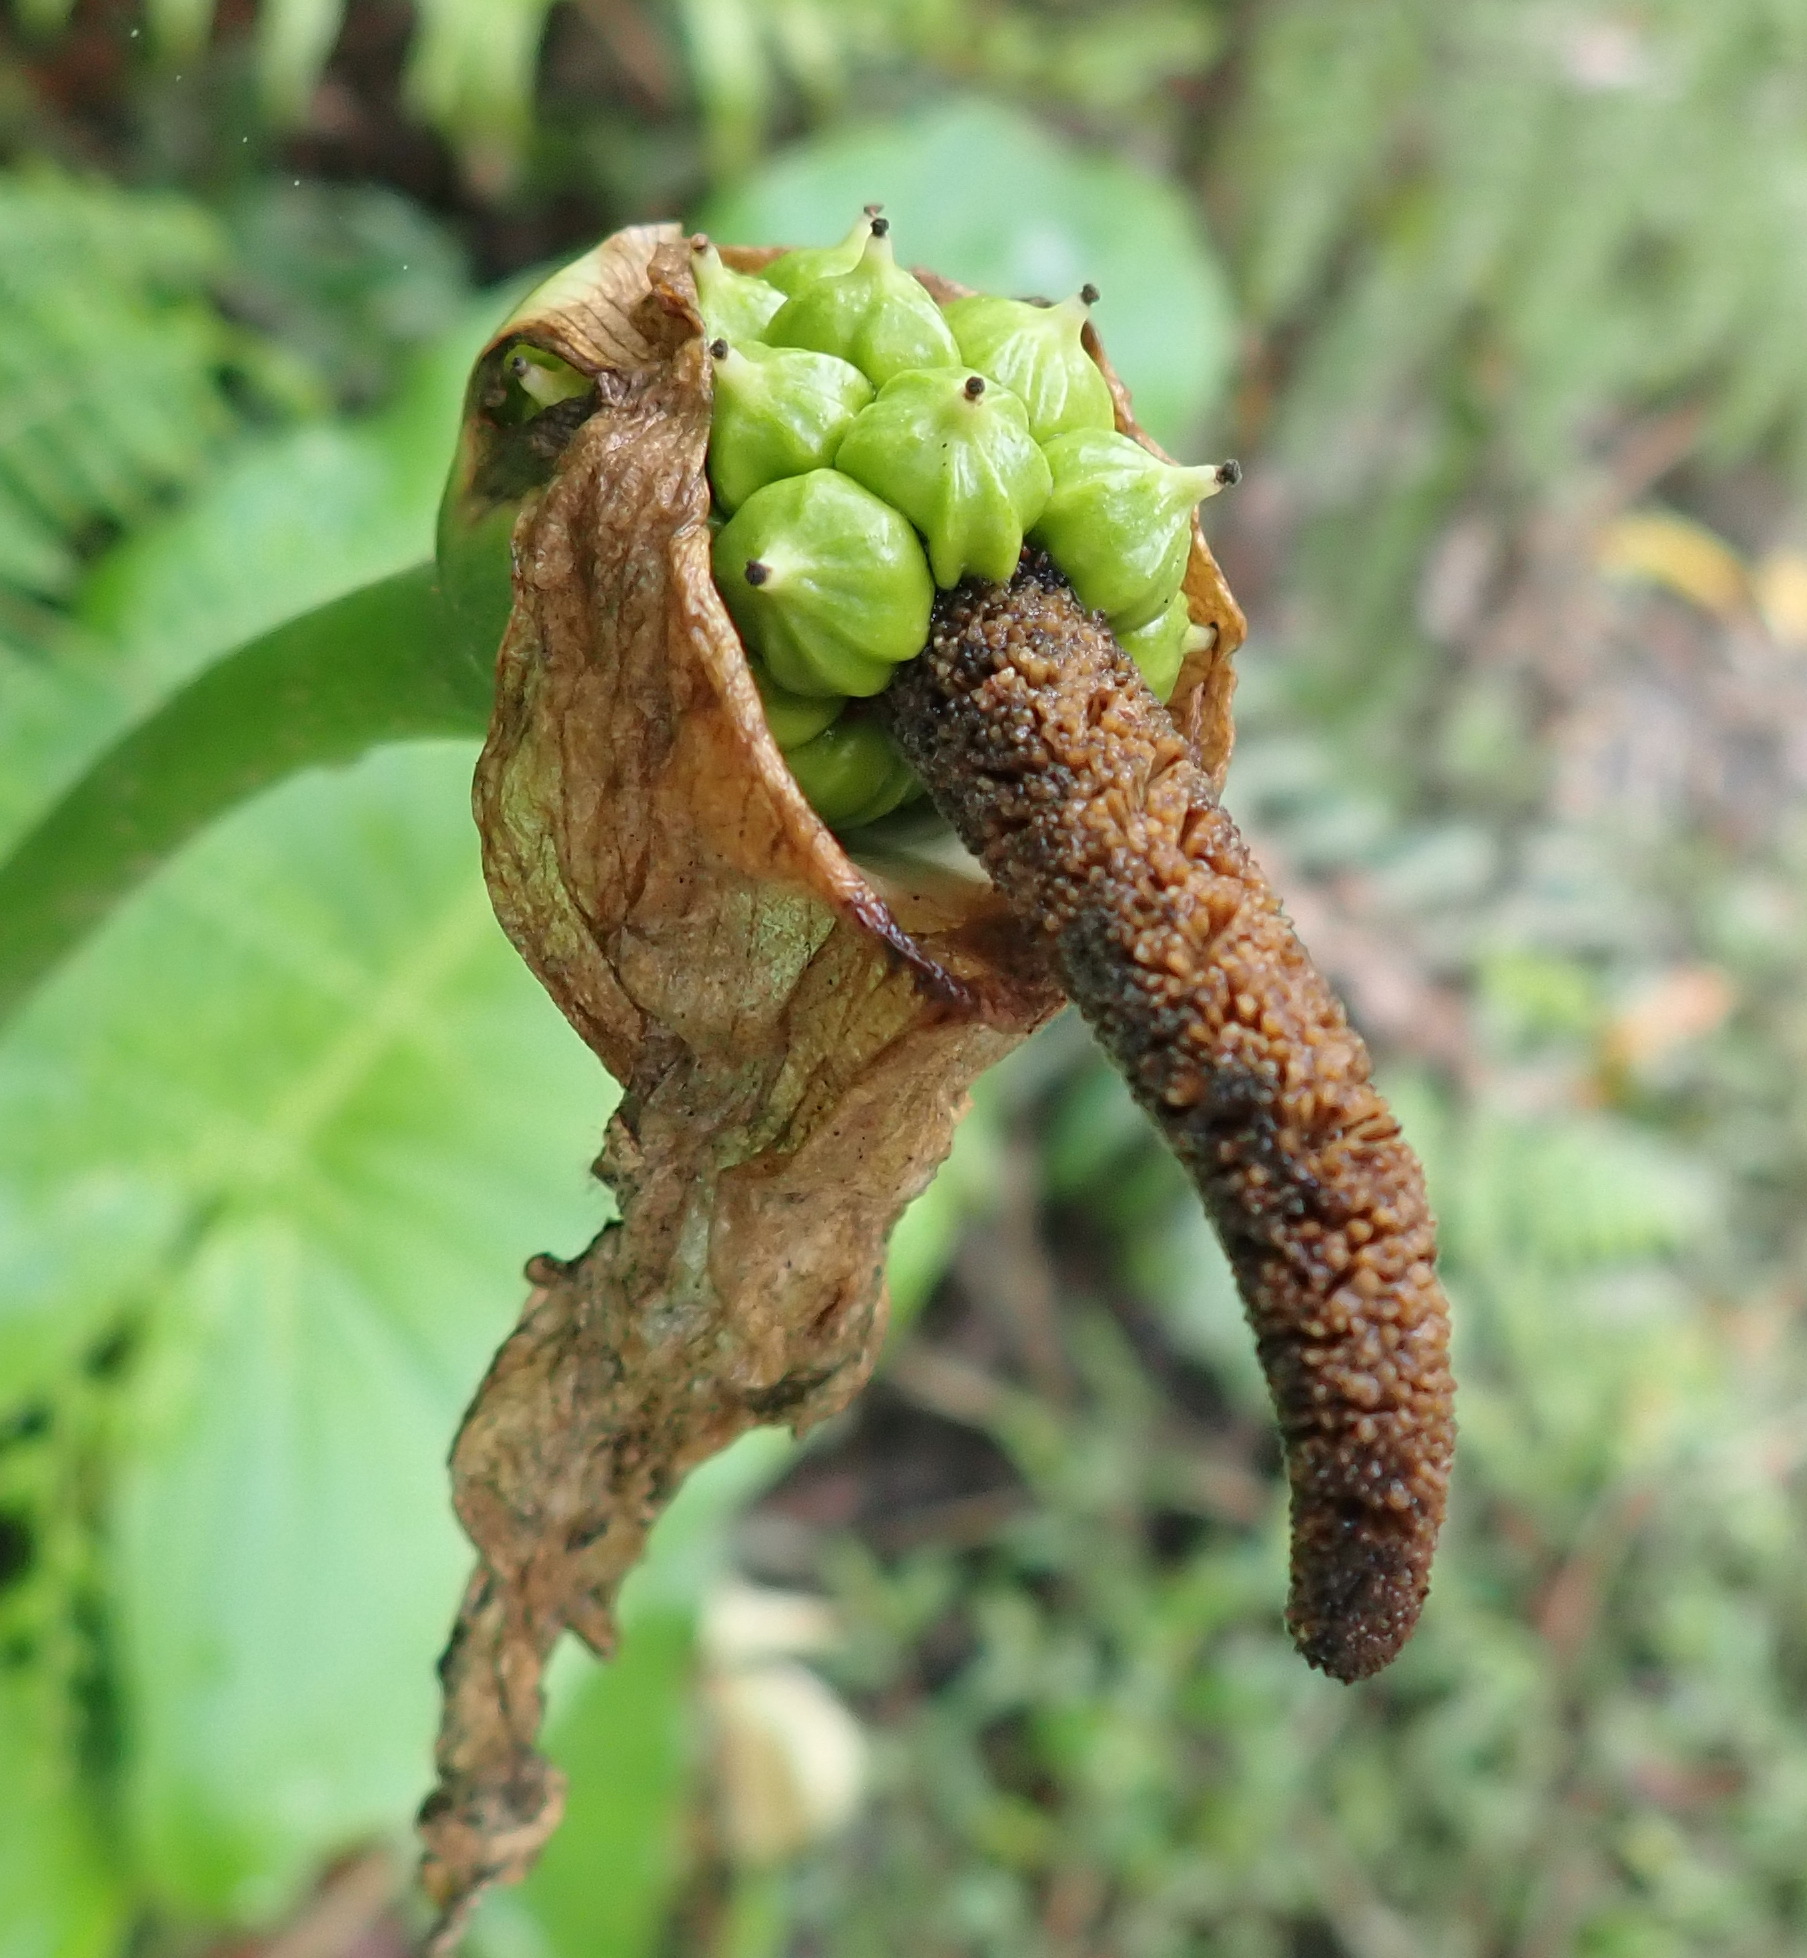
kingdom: Plantae
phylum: Tracheophyta
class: Liliopsida
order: Alismatales
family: Araceae
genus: Zantedeschia
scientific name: Zantedeschia aethiopica
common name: Altar-lily
